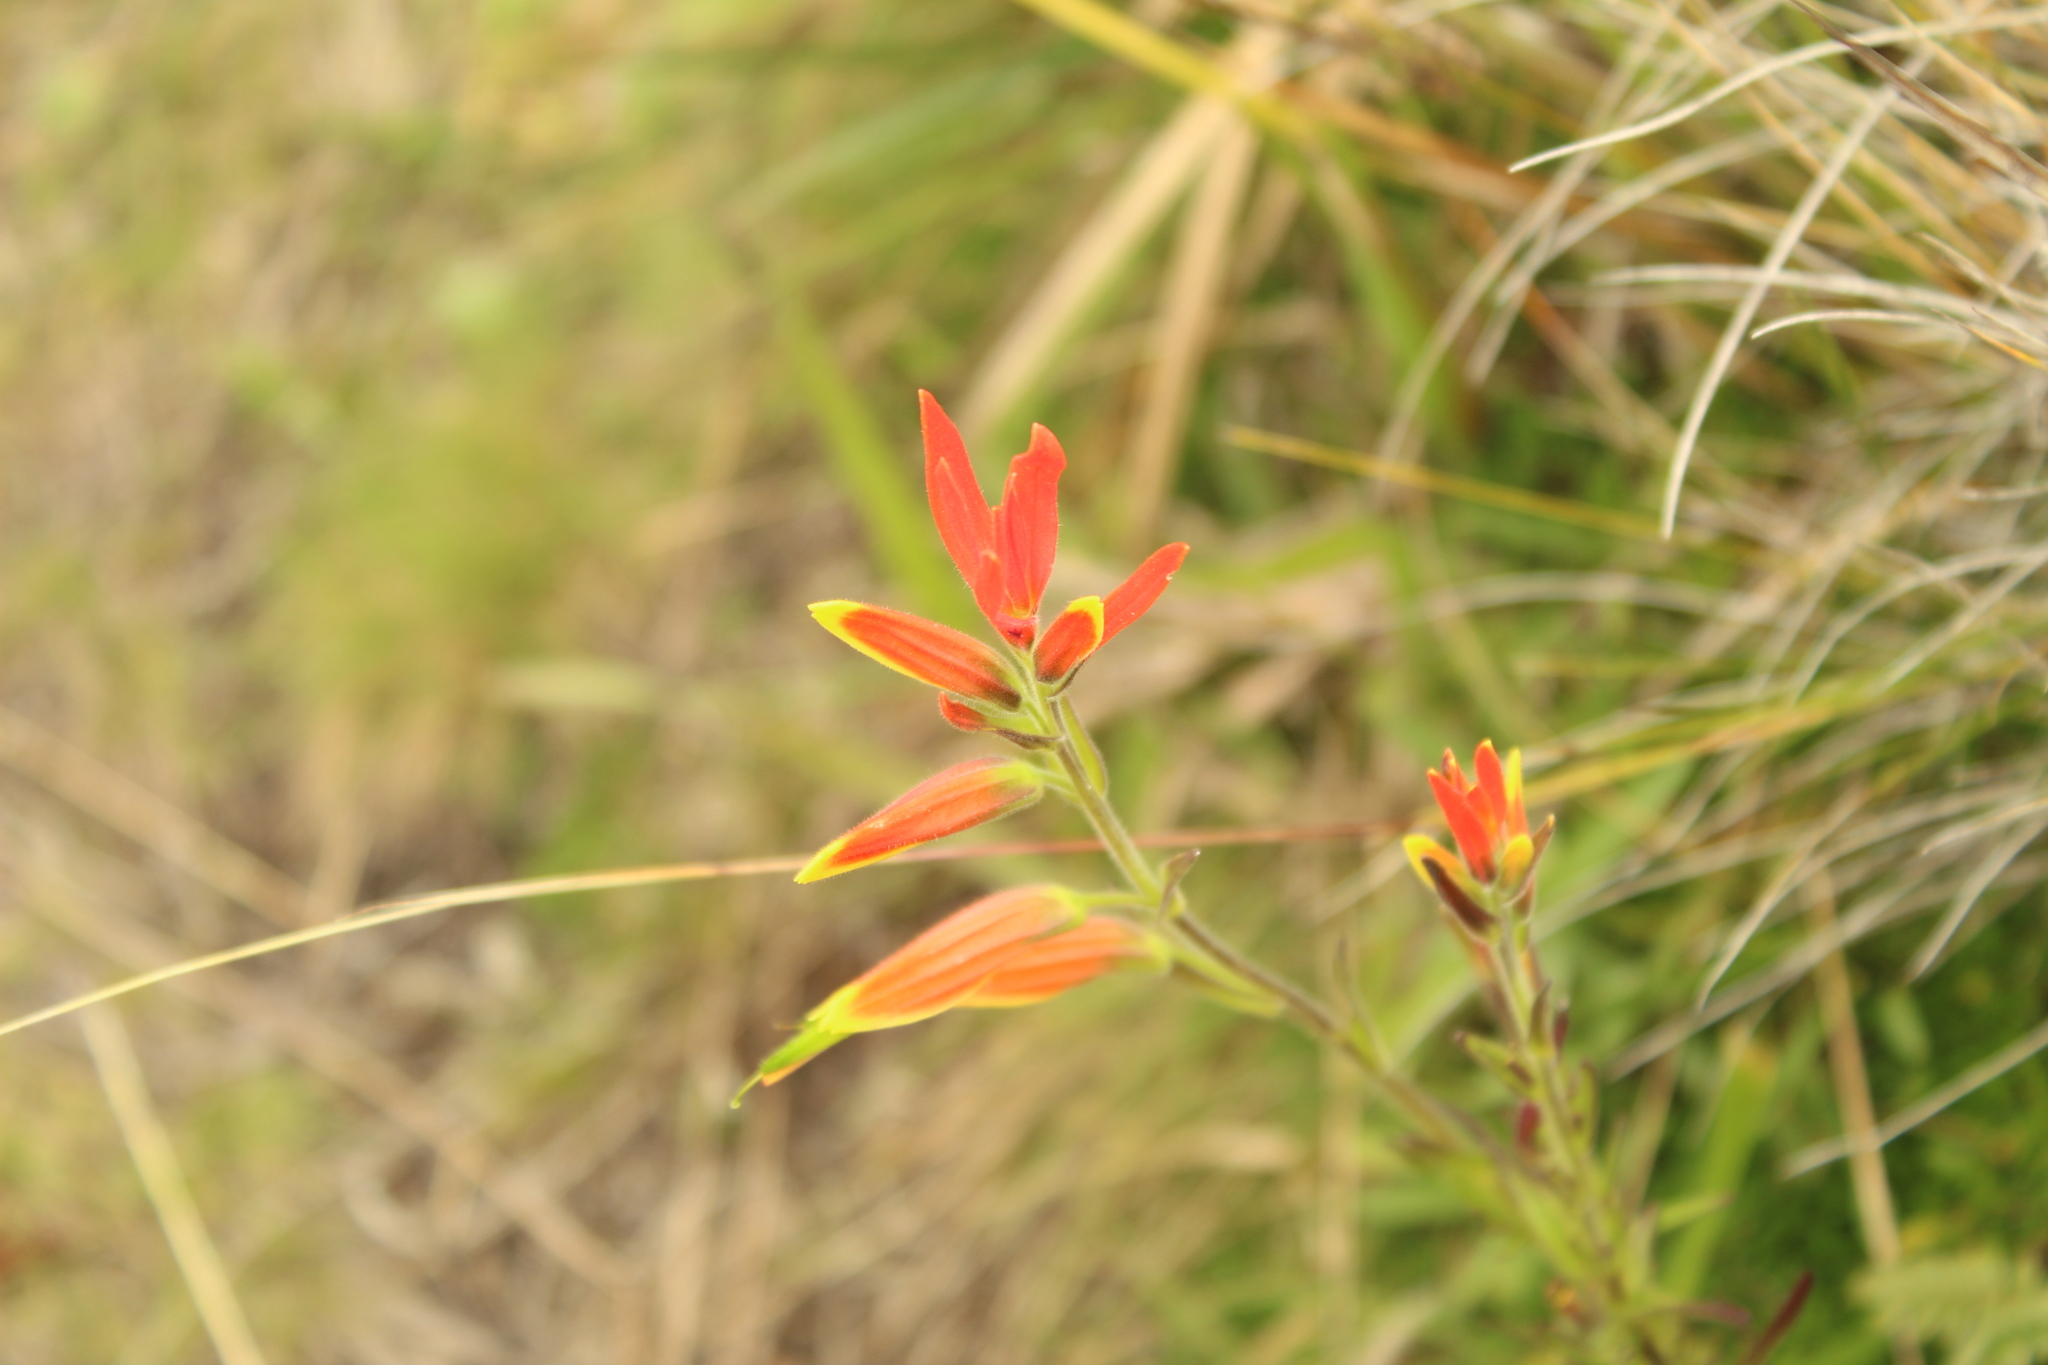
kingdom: Plantae
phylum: Tracheophyta
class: Magnoliopsida
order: Lamiales
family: Orobanchaceae
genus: Castilleja
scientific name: Castilleja integrifolia
